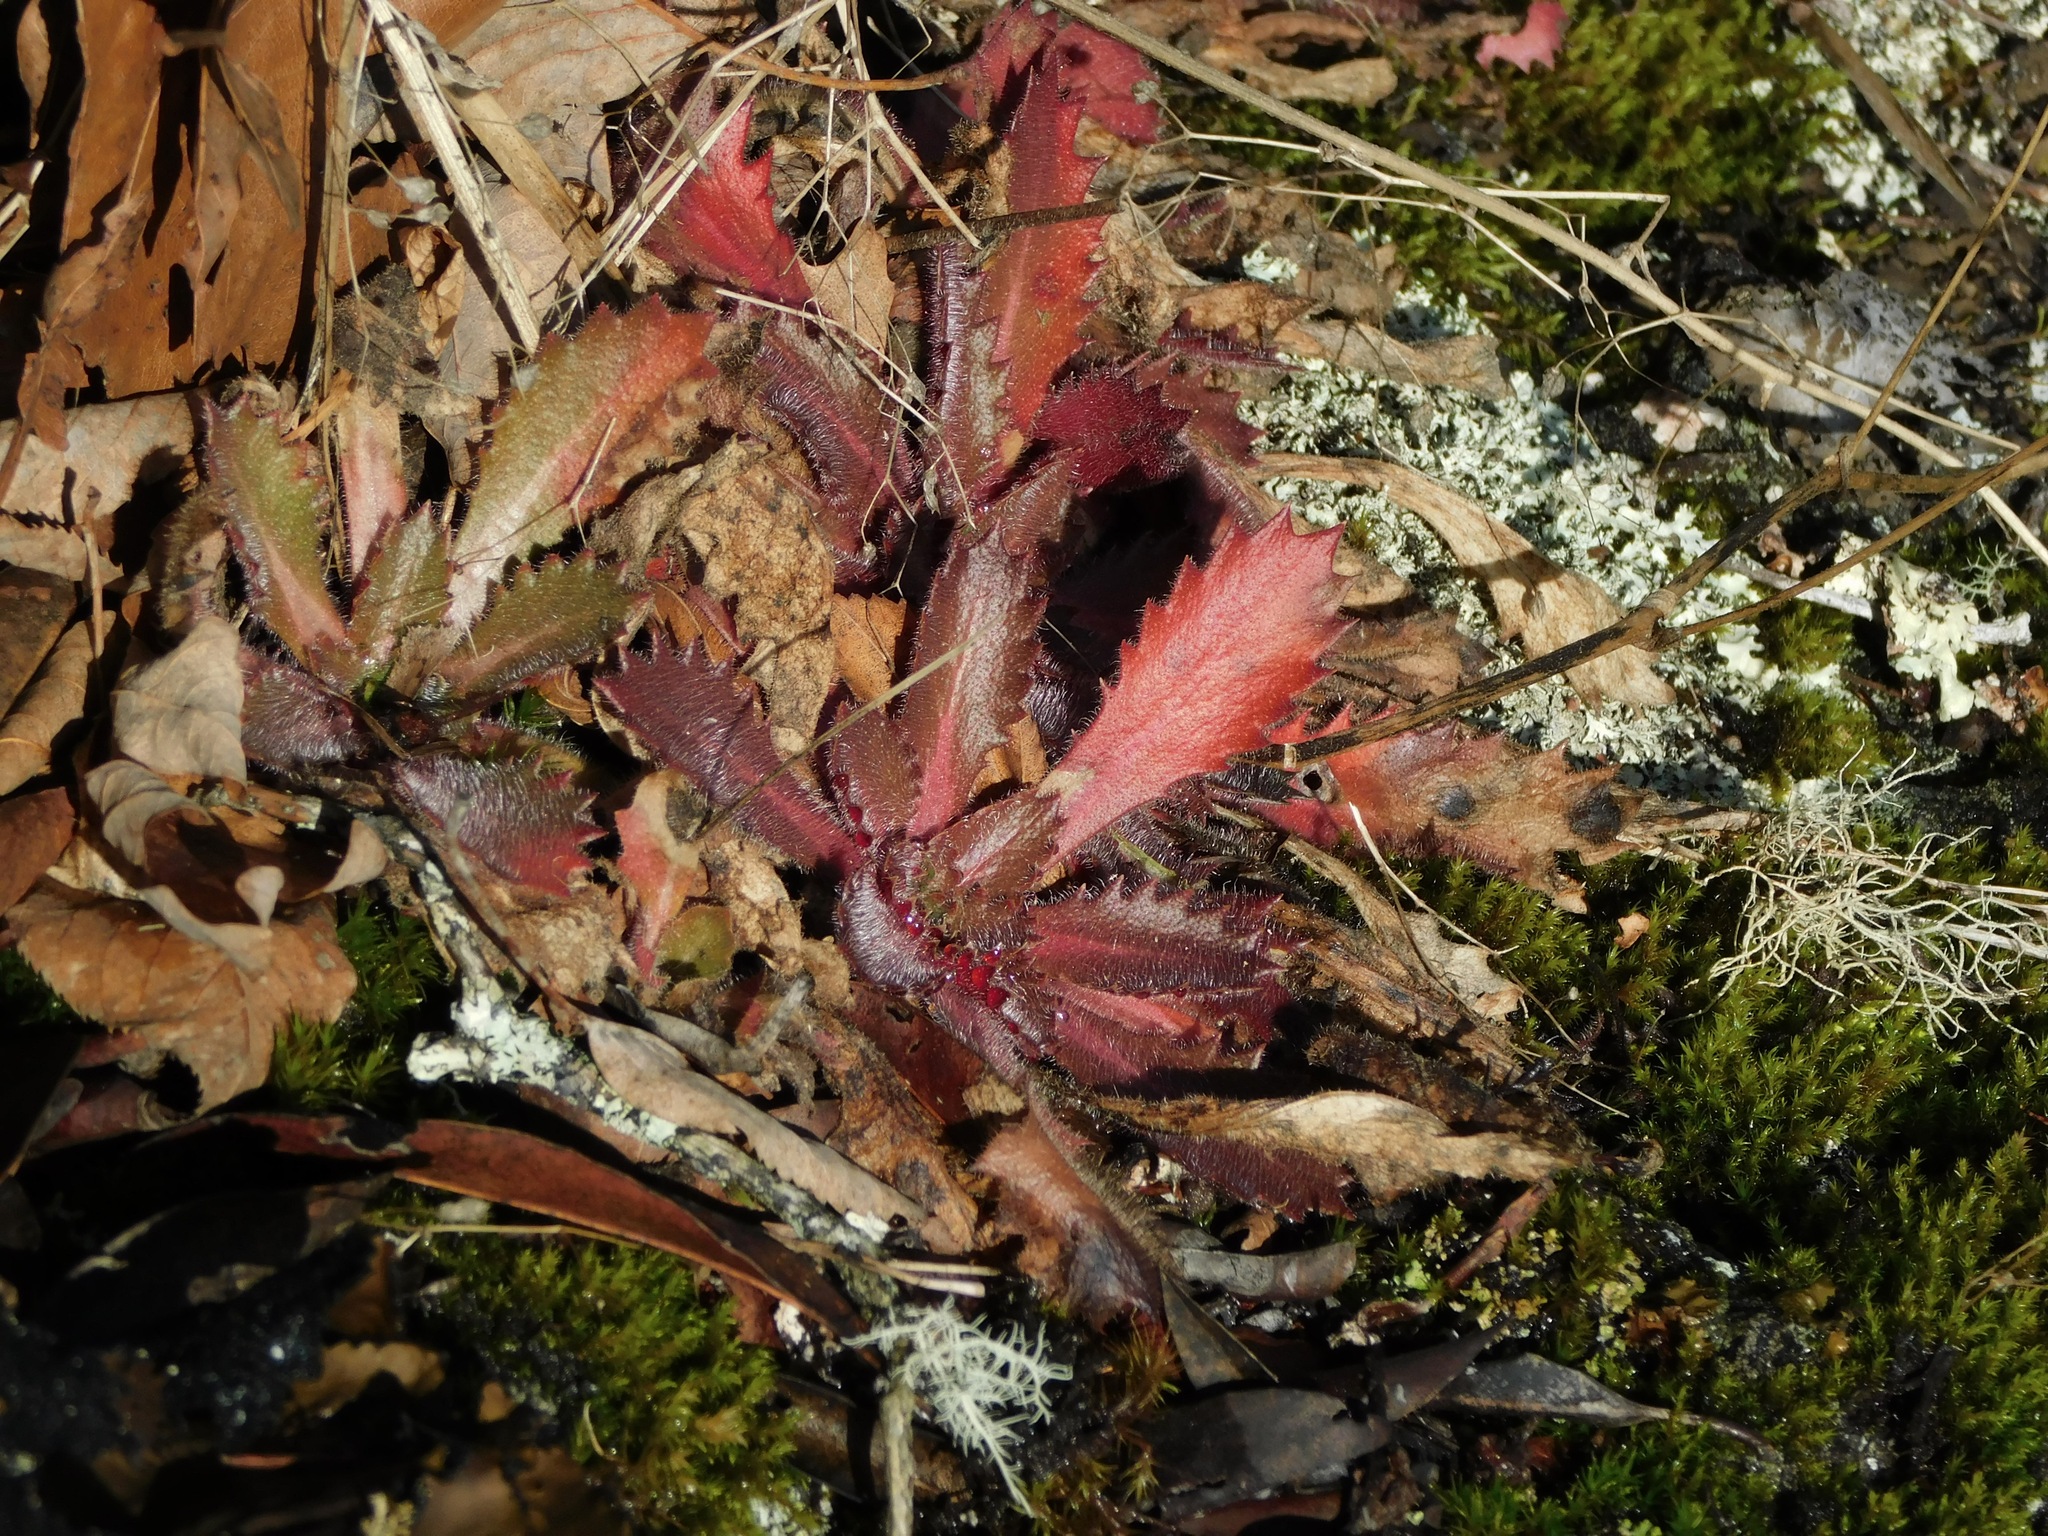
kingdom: Plantae
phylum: Tracheophyta
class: Magnoliopsida
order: Saxifragales
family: Saxifragaceae
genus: Micranthes
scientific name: Micranthes petiolaris
